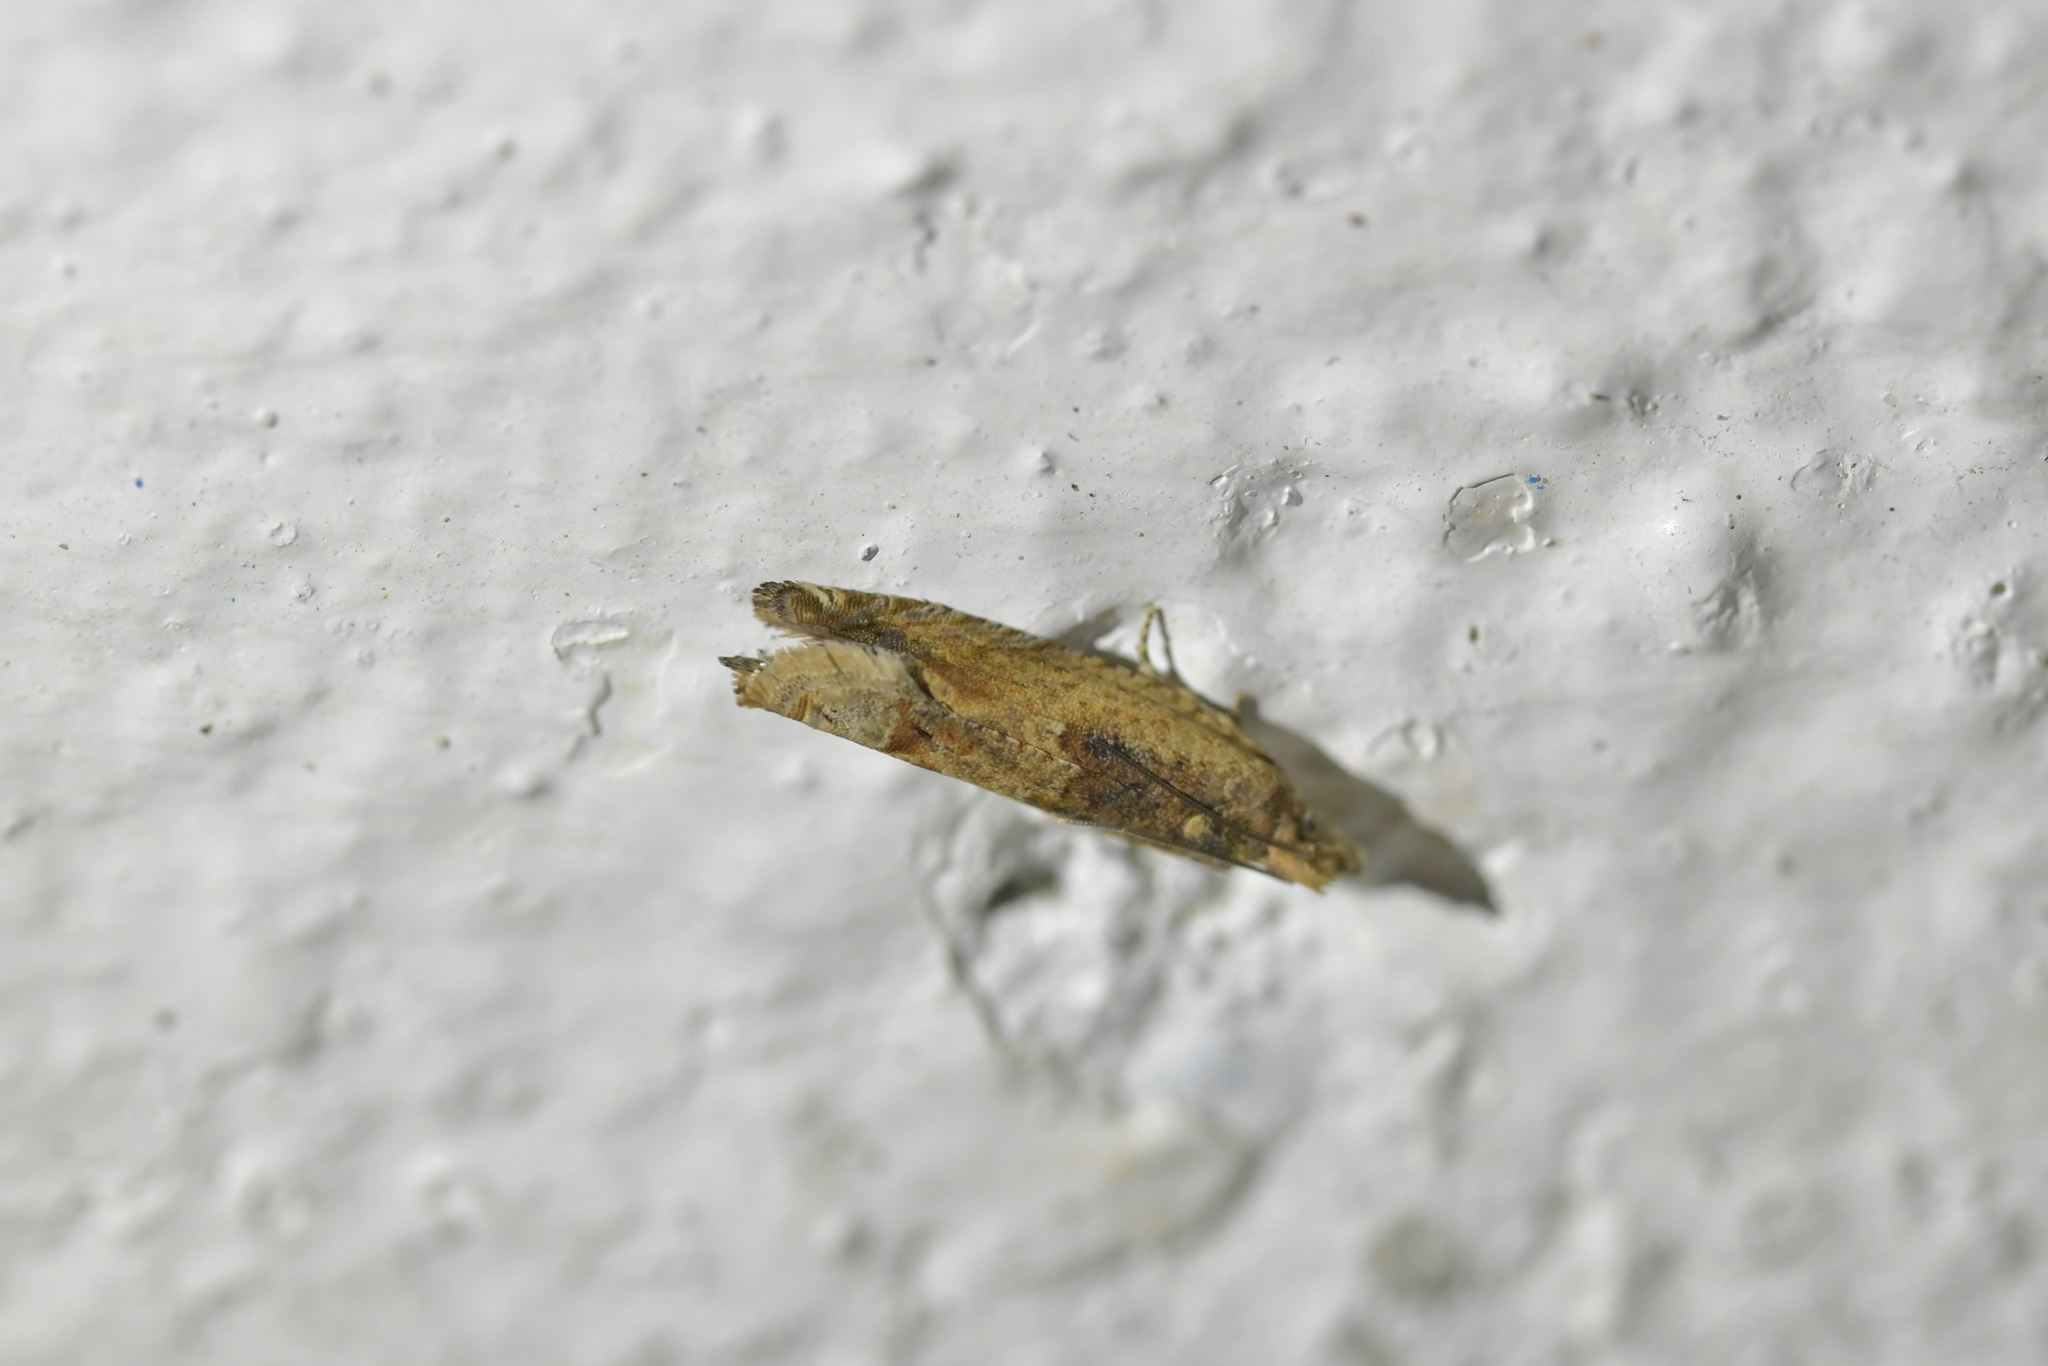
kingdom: Animalia
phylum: Arthropoda
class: Insecta
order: Lepidoptera
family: Tortricidae
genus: Crocidosema
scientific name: Crocidosema plebejana
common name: Southern bell
